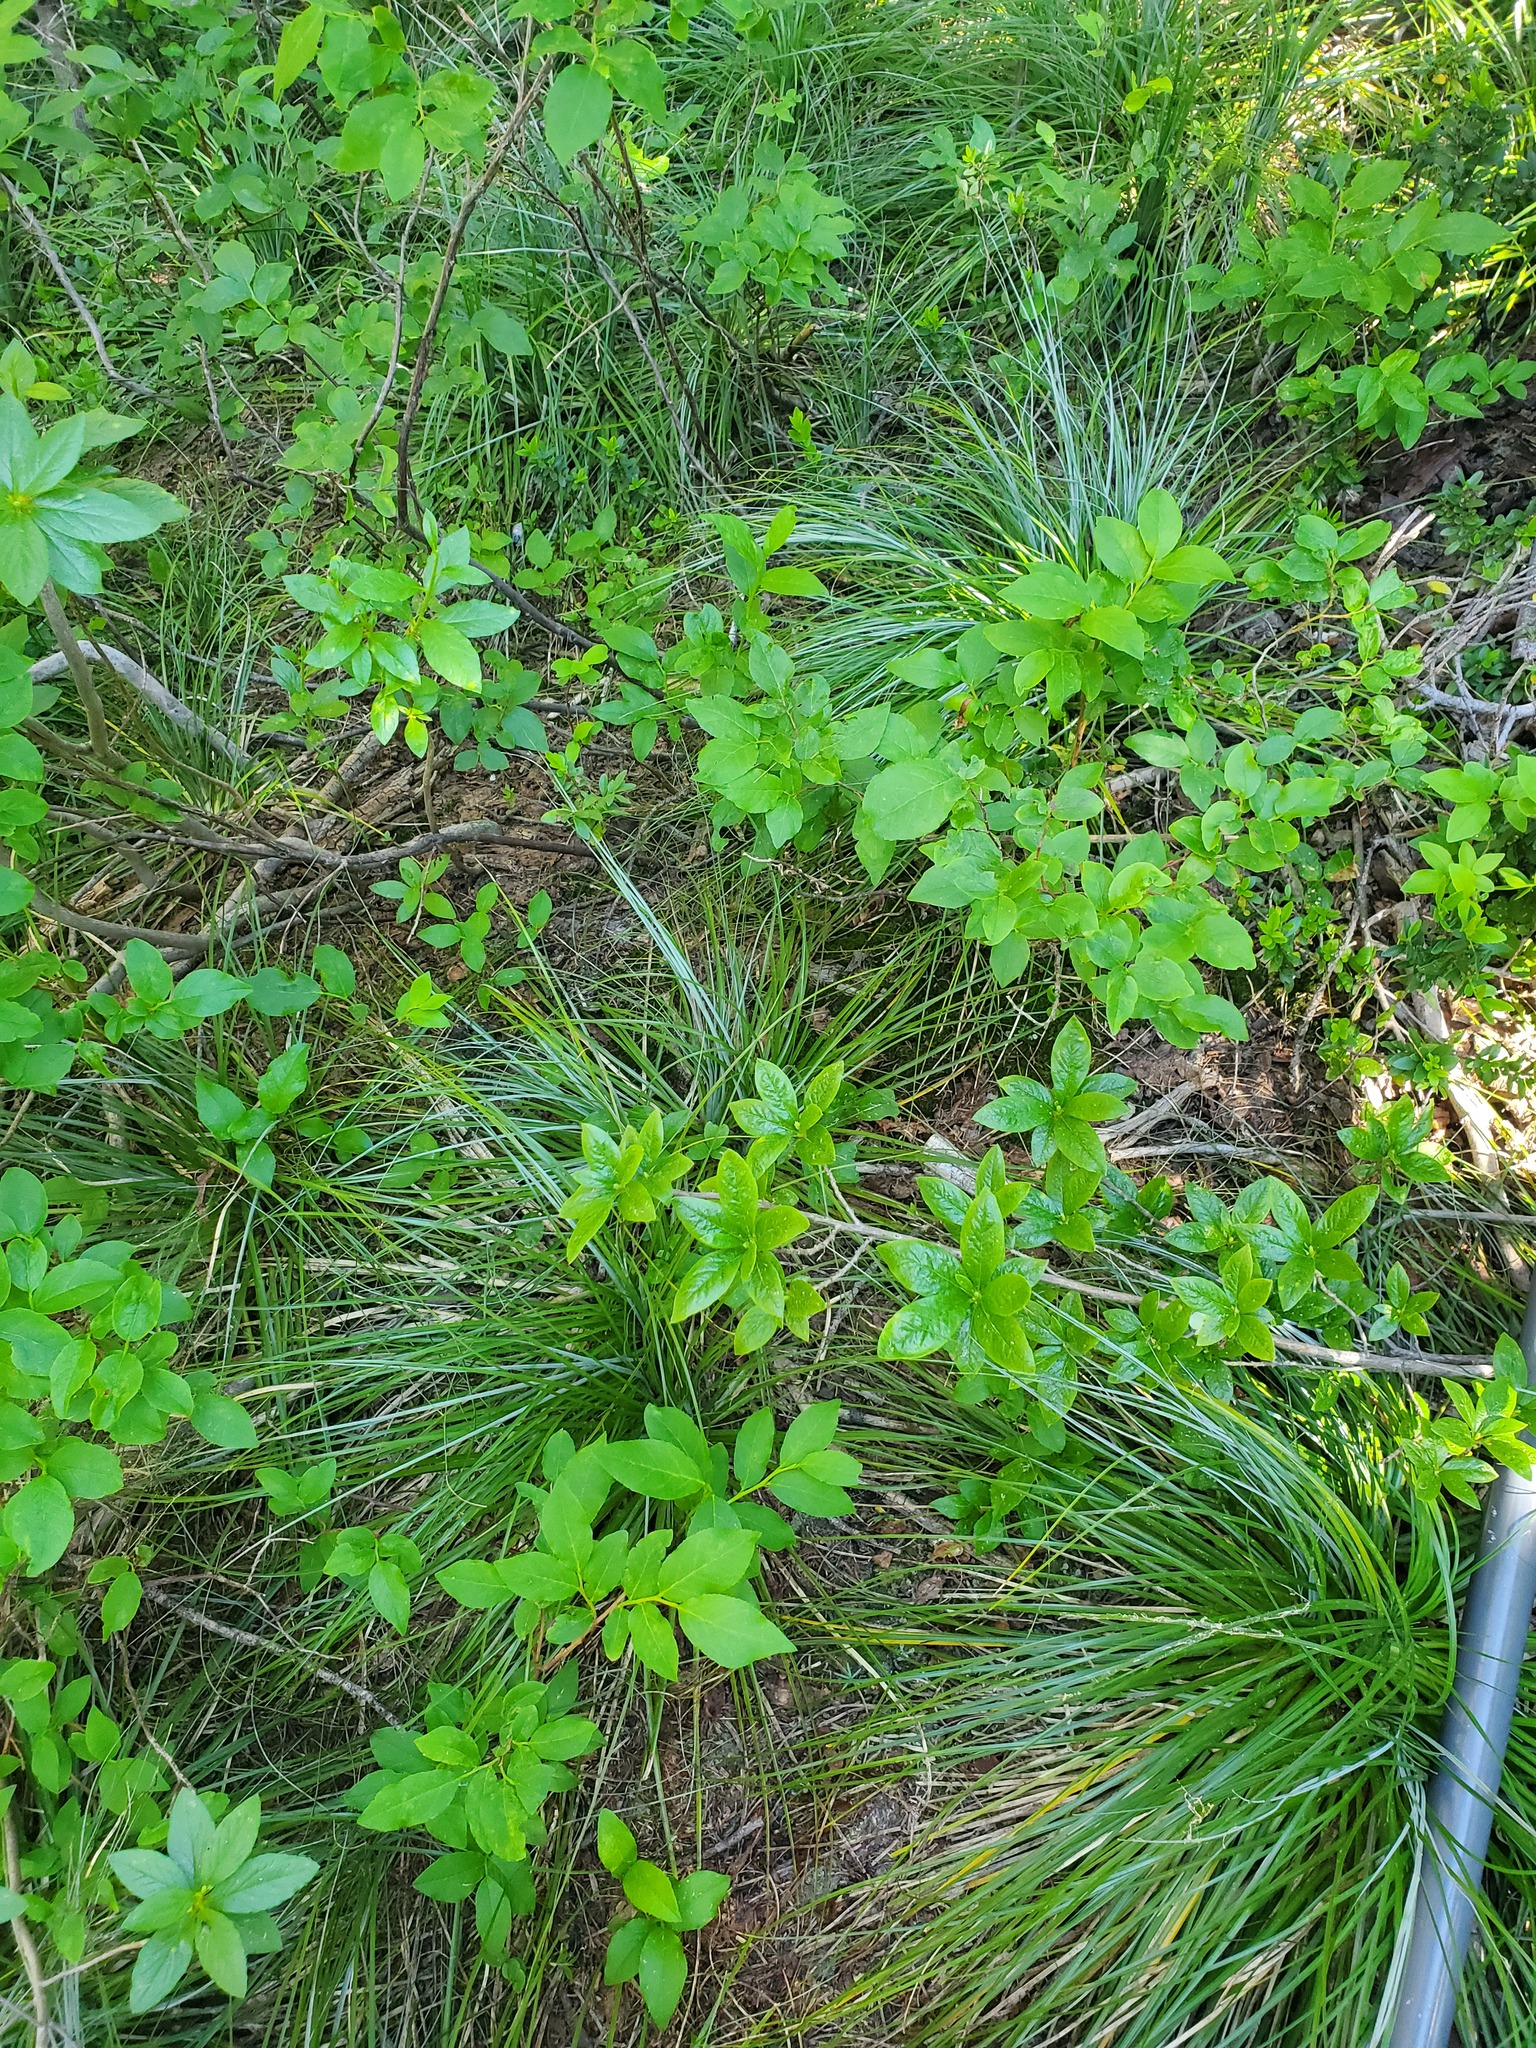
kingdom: Plantae
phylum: Tracheophyta
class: Liliopsida
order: Liliales
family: Melanthiaceae
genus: Xerophyllum
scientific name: Xerophyllum tenax
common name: Bear-grass
